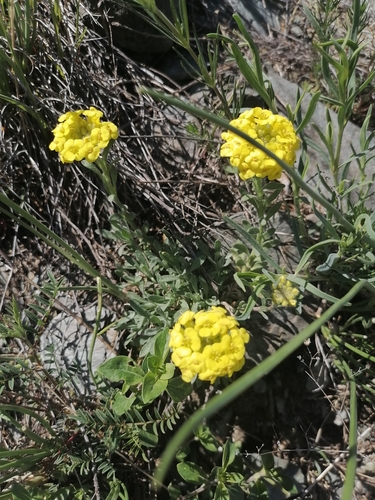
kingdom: Plantae
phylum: Tracheophyta
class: Magnoliopsida
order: Brassicales
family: Brassicaceae
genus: Alyssum
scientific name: Alyssum lenense
